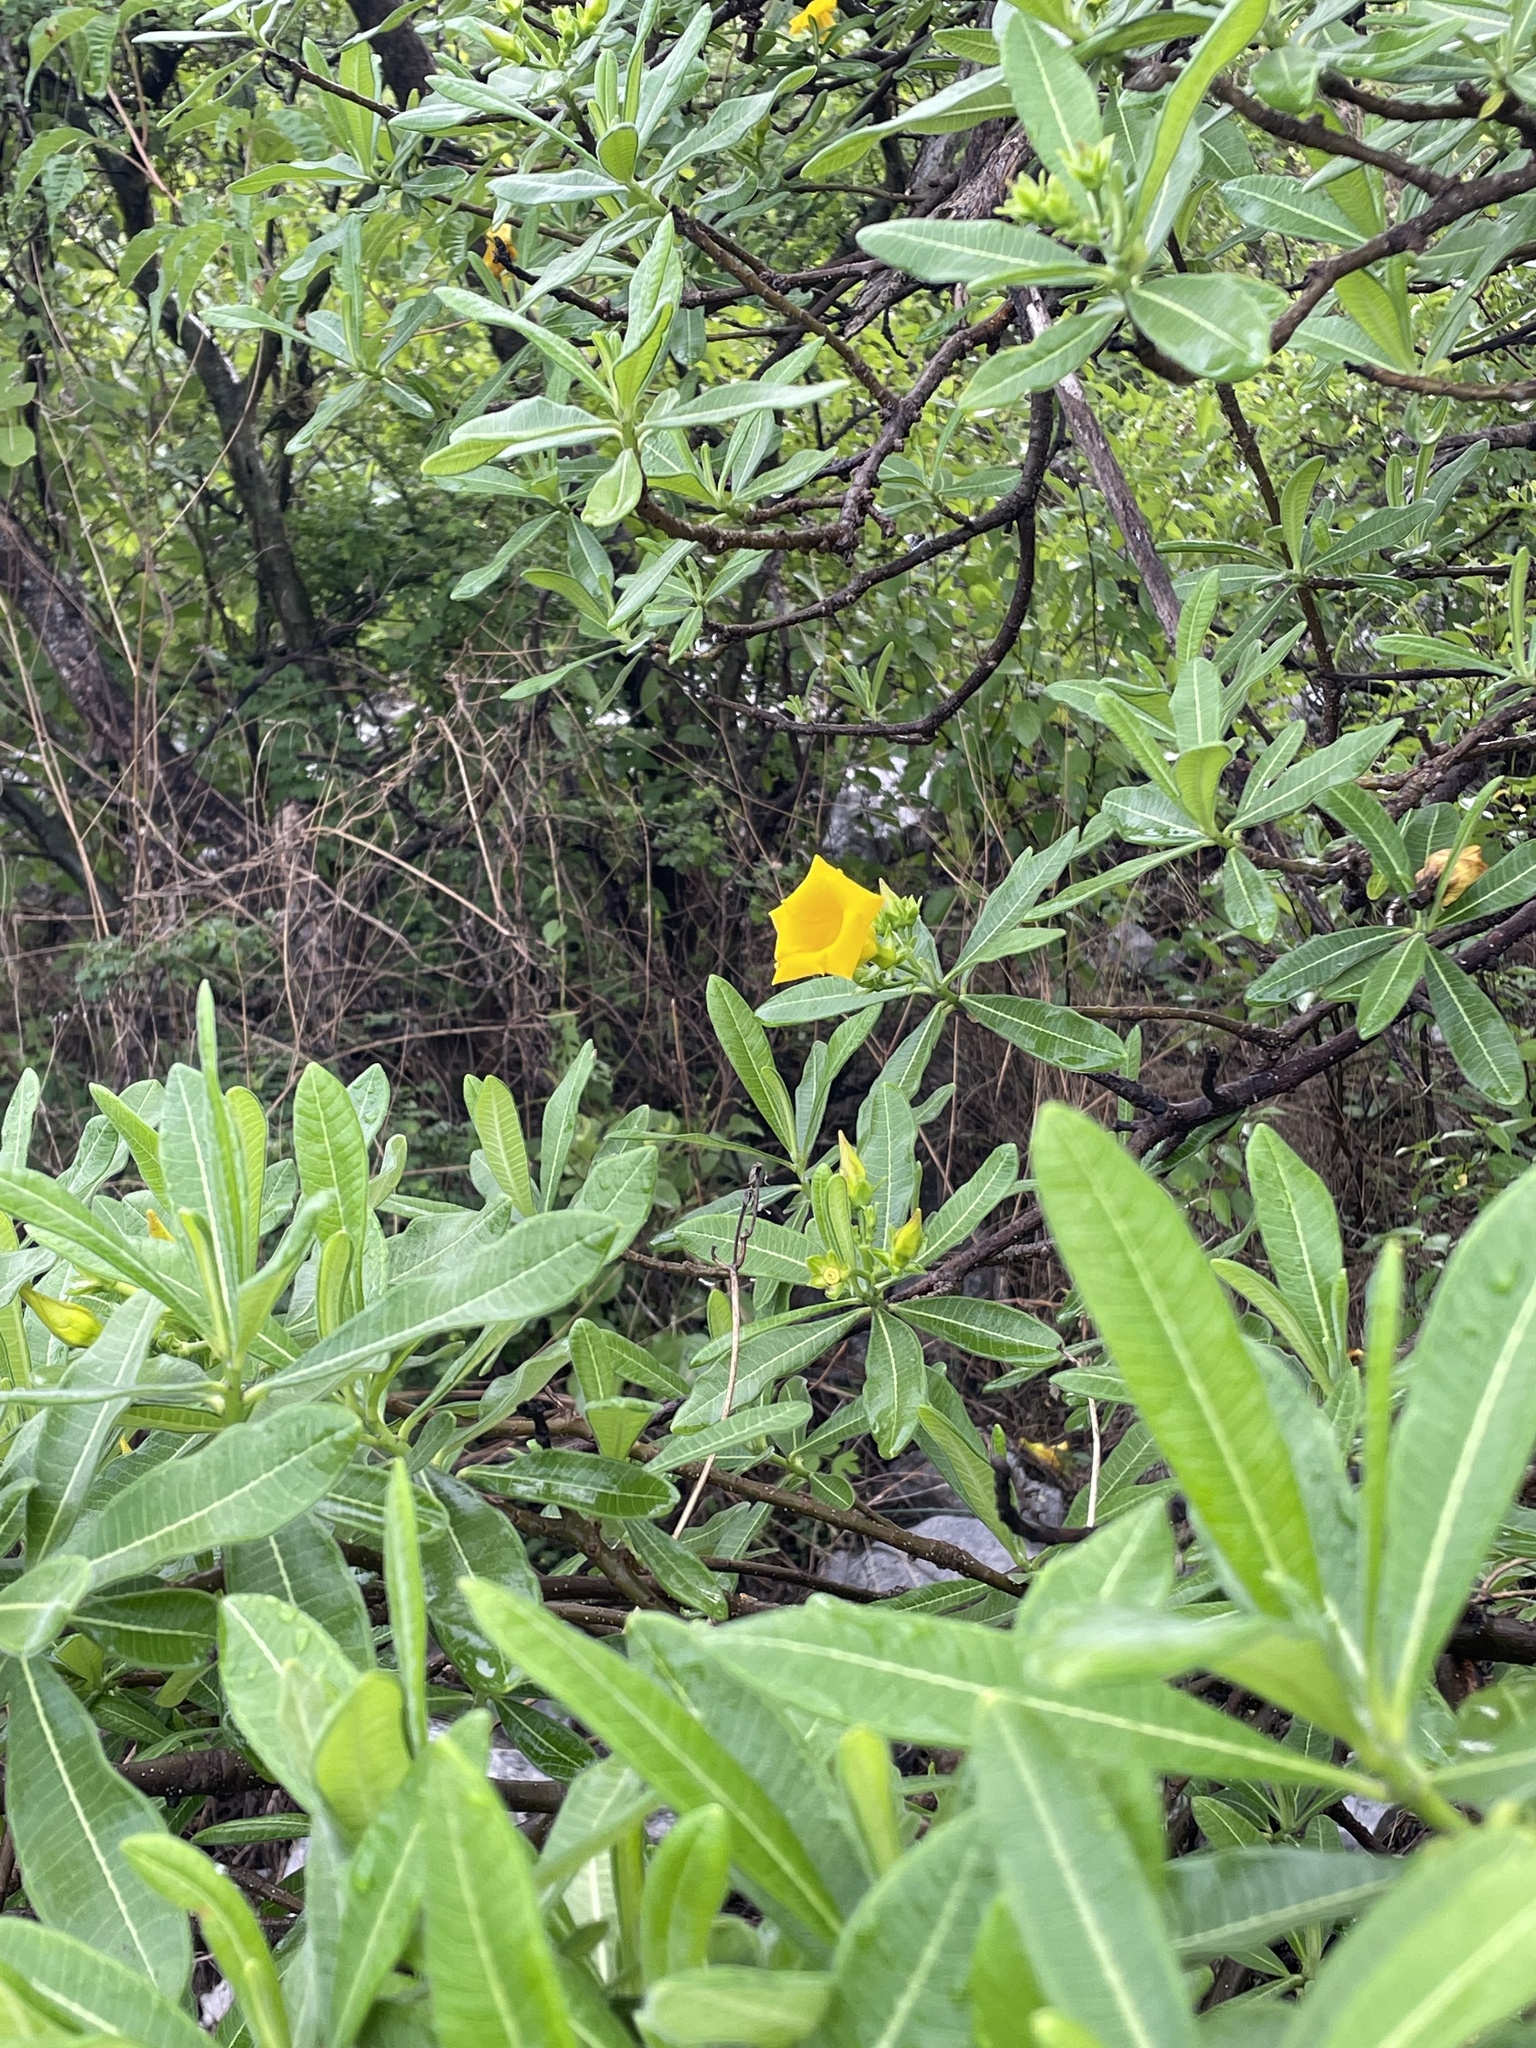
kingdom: Plantae
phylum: Tracheophyta
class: Magnoliopsida
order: Gentianales
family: Apocynaceae
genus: Cascabela
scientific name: Cascabela ovata
